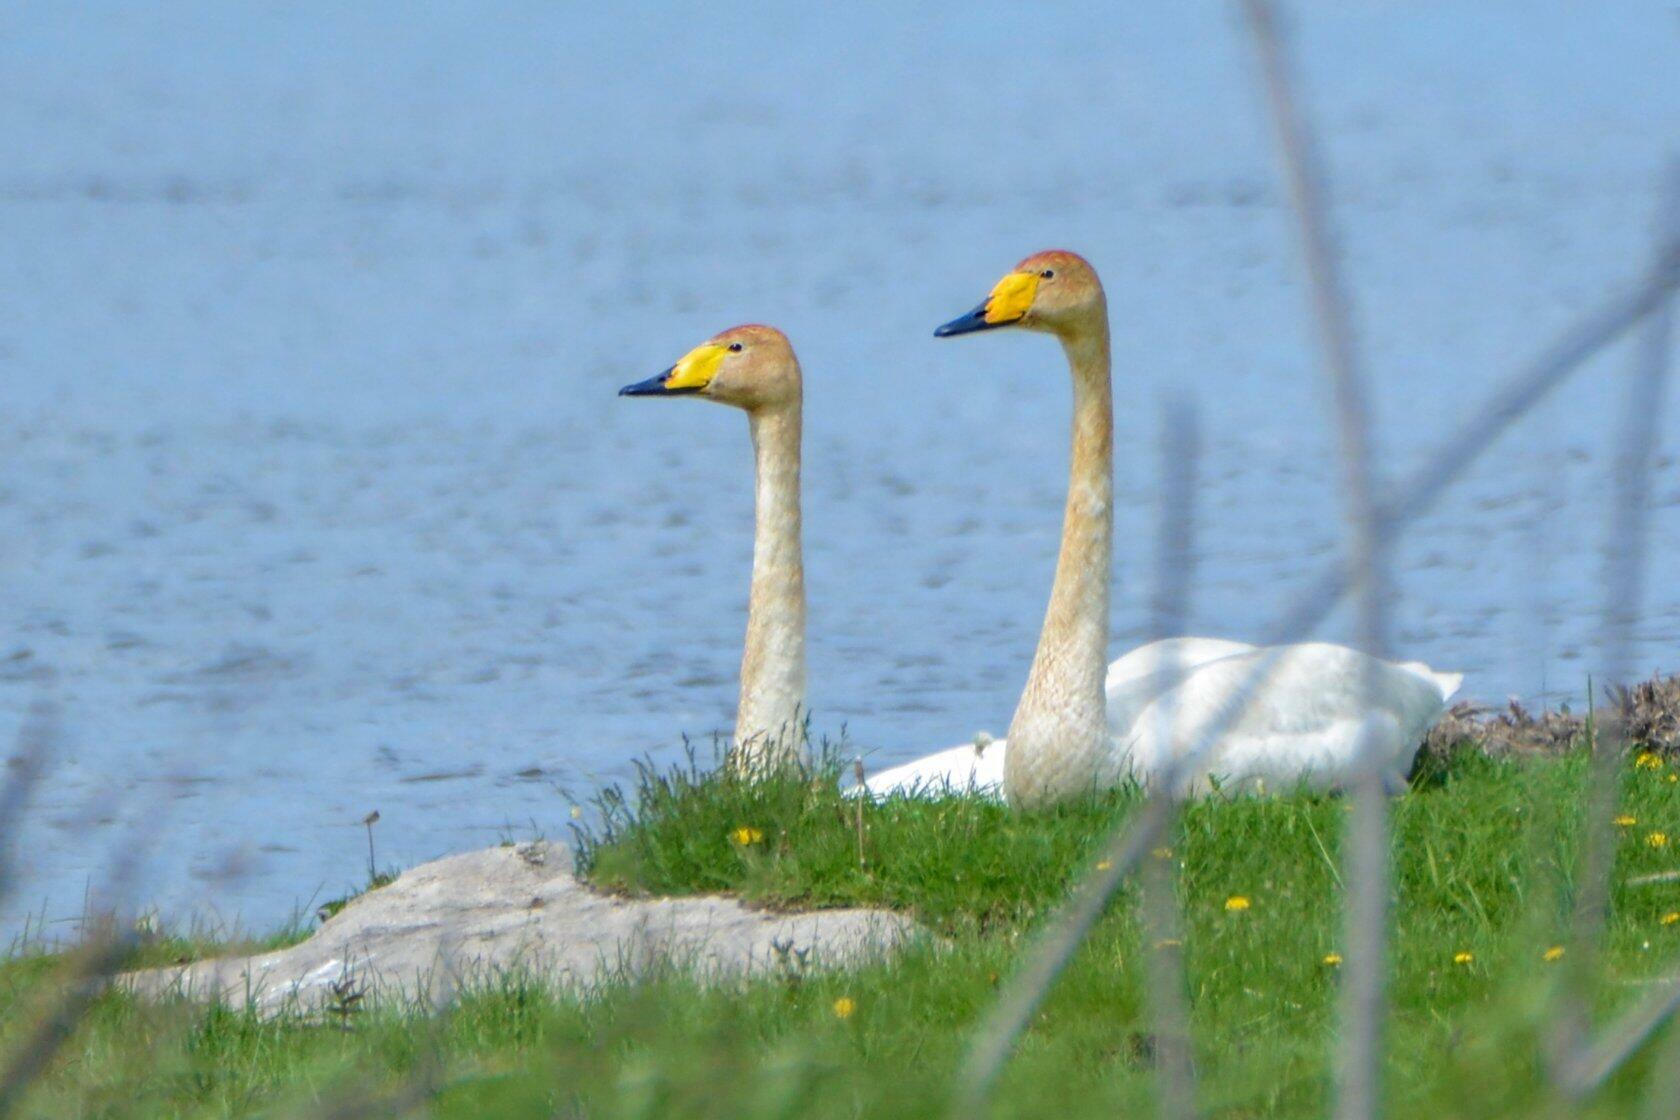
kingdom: Animalia
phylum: Chordata
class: Aves
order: Anseriformes
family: Anatidae
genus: Cygnus
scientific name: Cygnus cygnus
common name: Whooper swan
